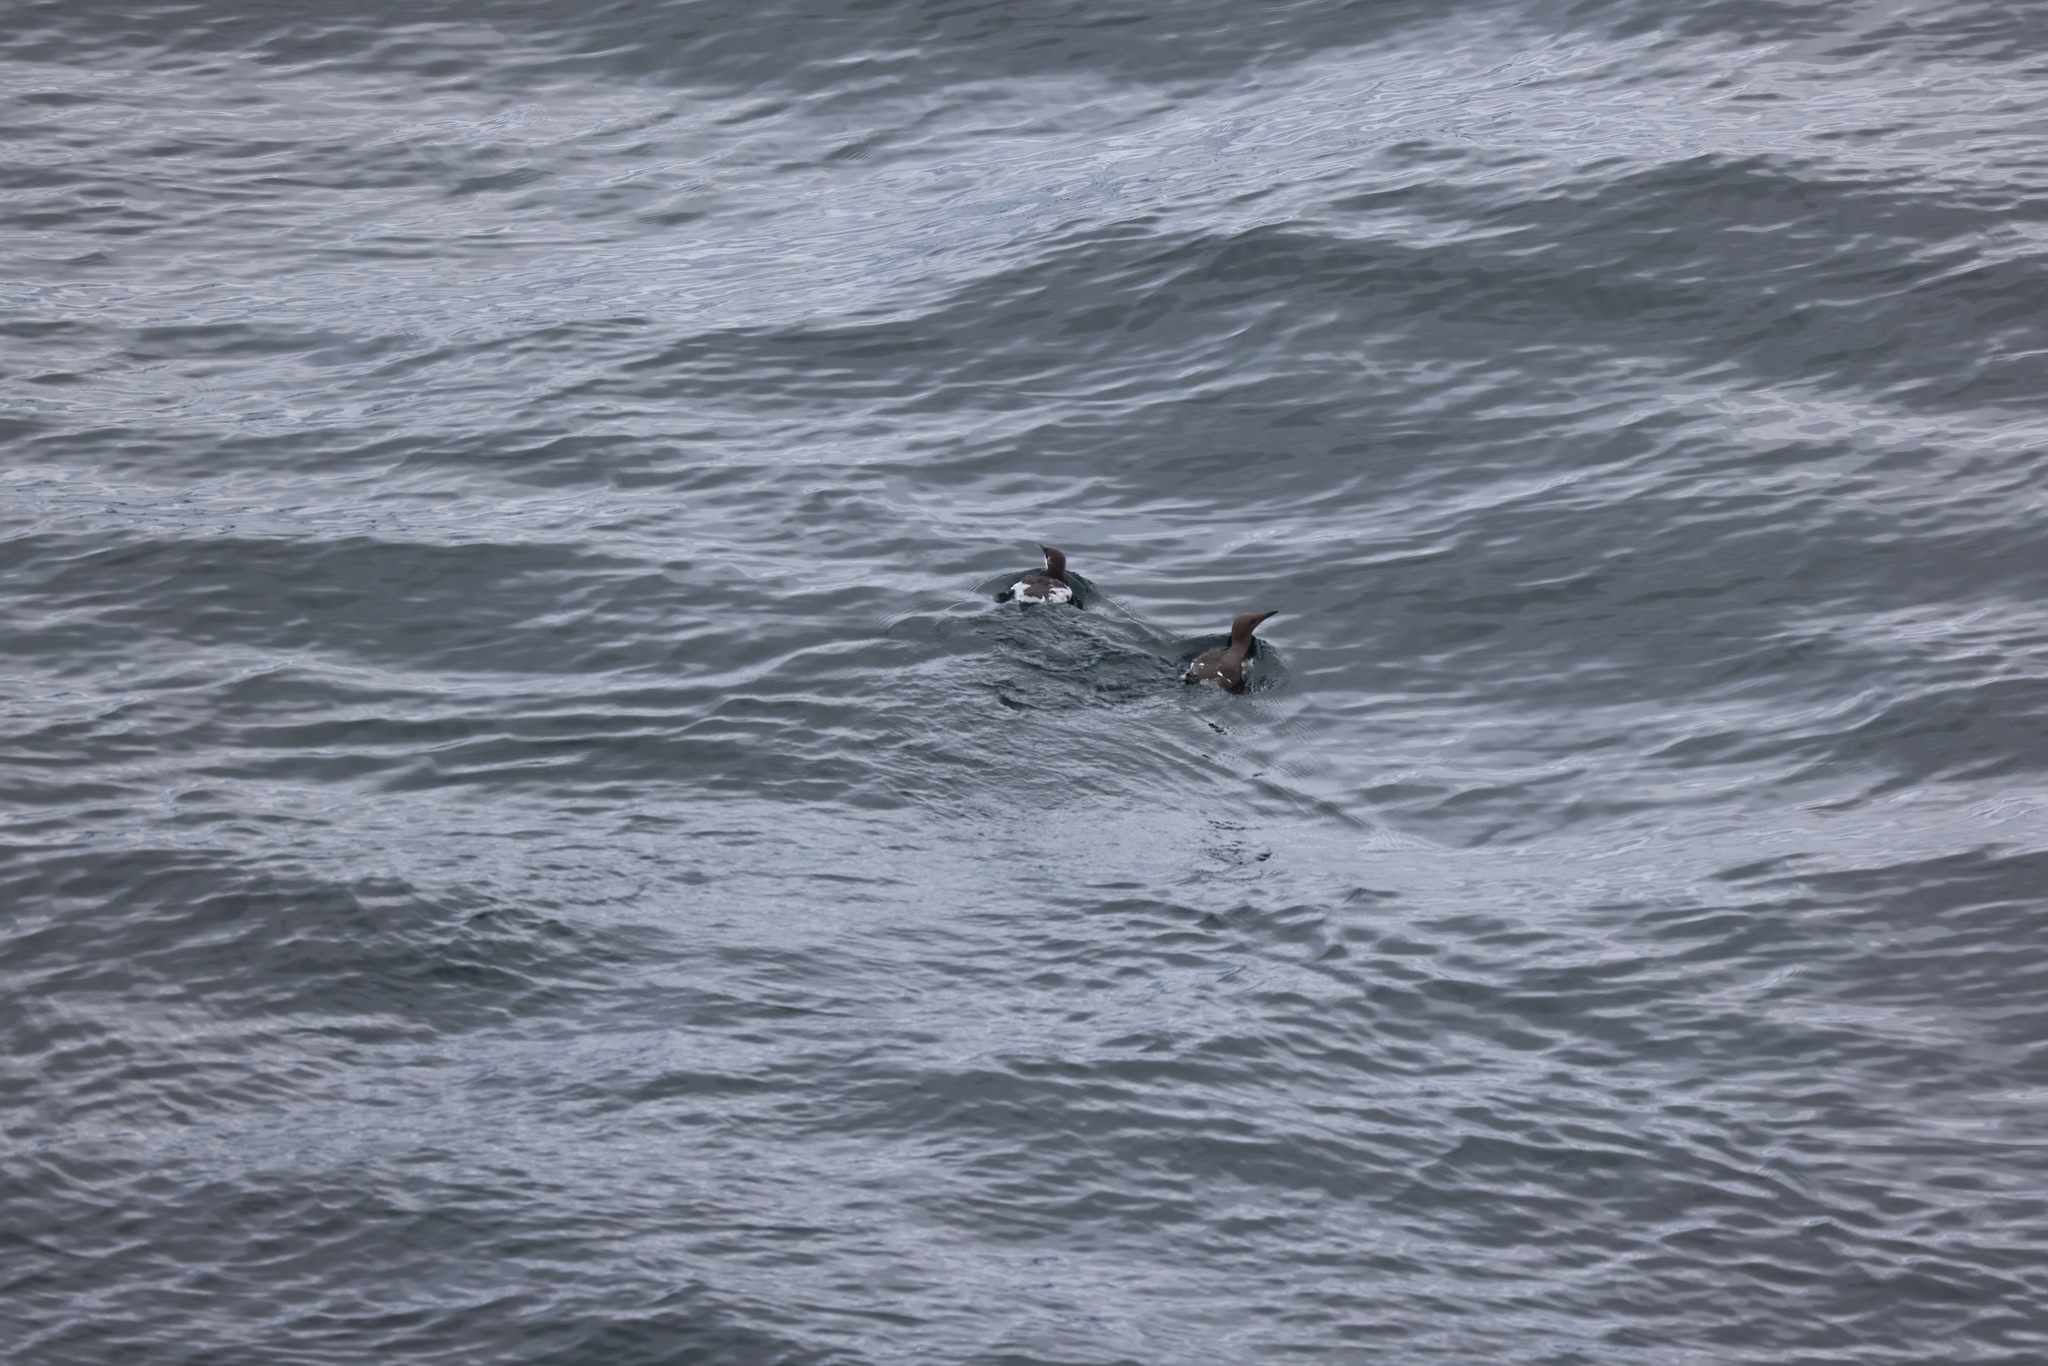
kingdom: Animalia
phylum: Chordata
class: Aves
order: Charadriiformes
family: Alcidae
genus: Uria
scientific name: Uria aalge
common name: Common murre
